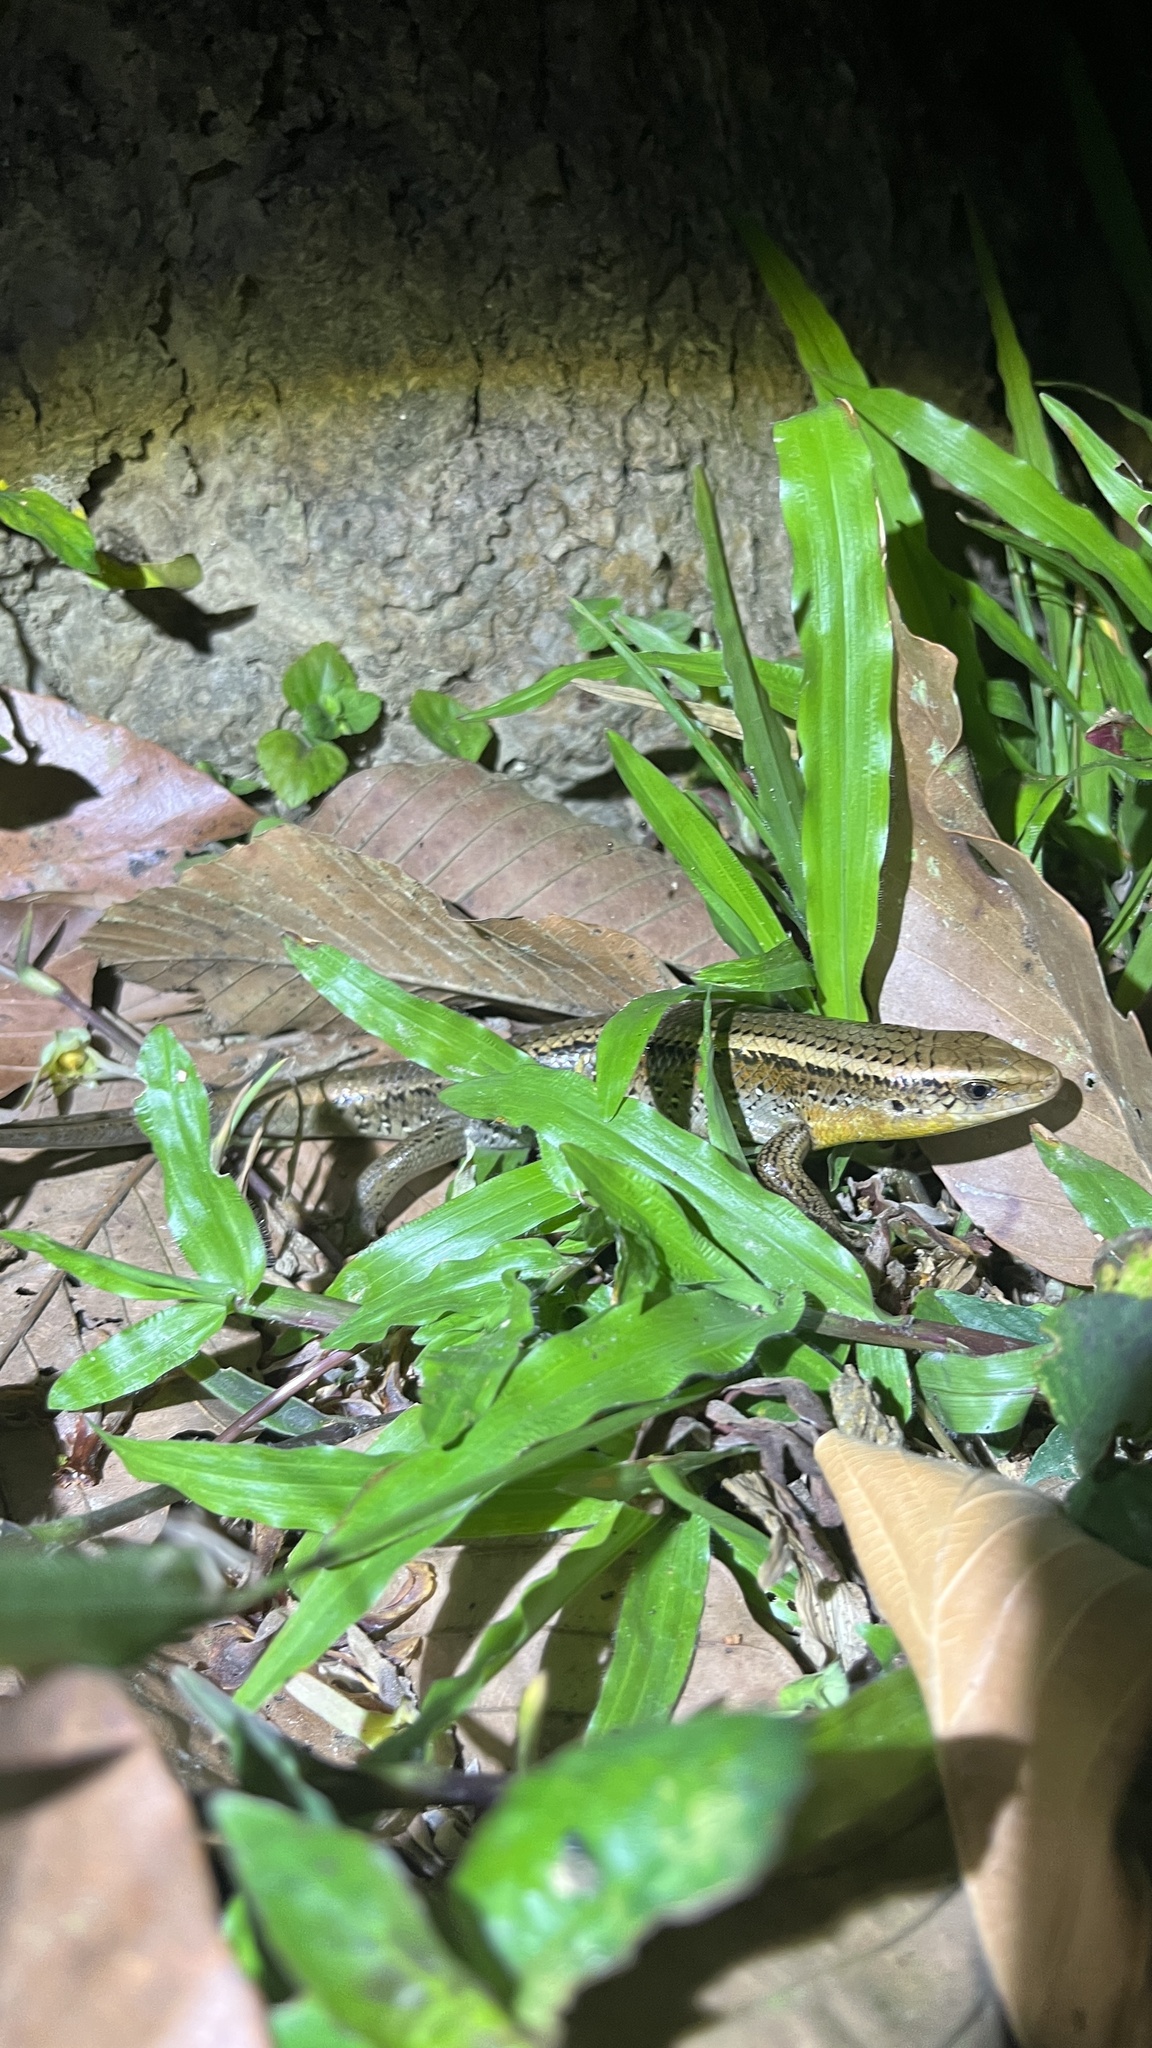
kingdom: Animalia
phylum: Chordata
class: Squamata
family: Scincidae
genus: Eutropis
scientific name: Eutropis multifasciata
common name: Common mabuya
